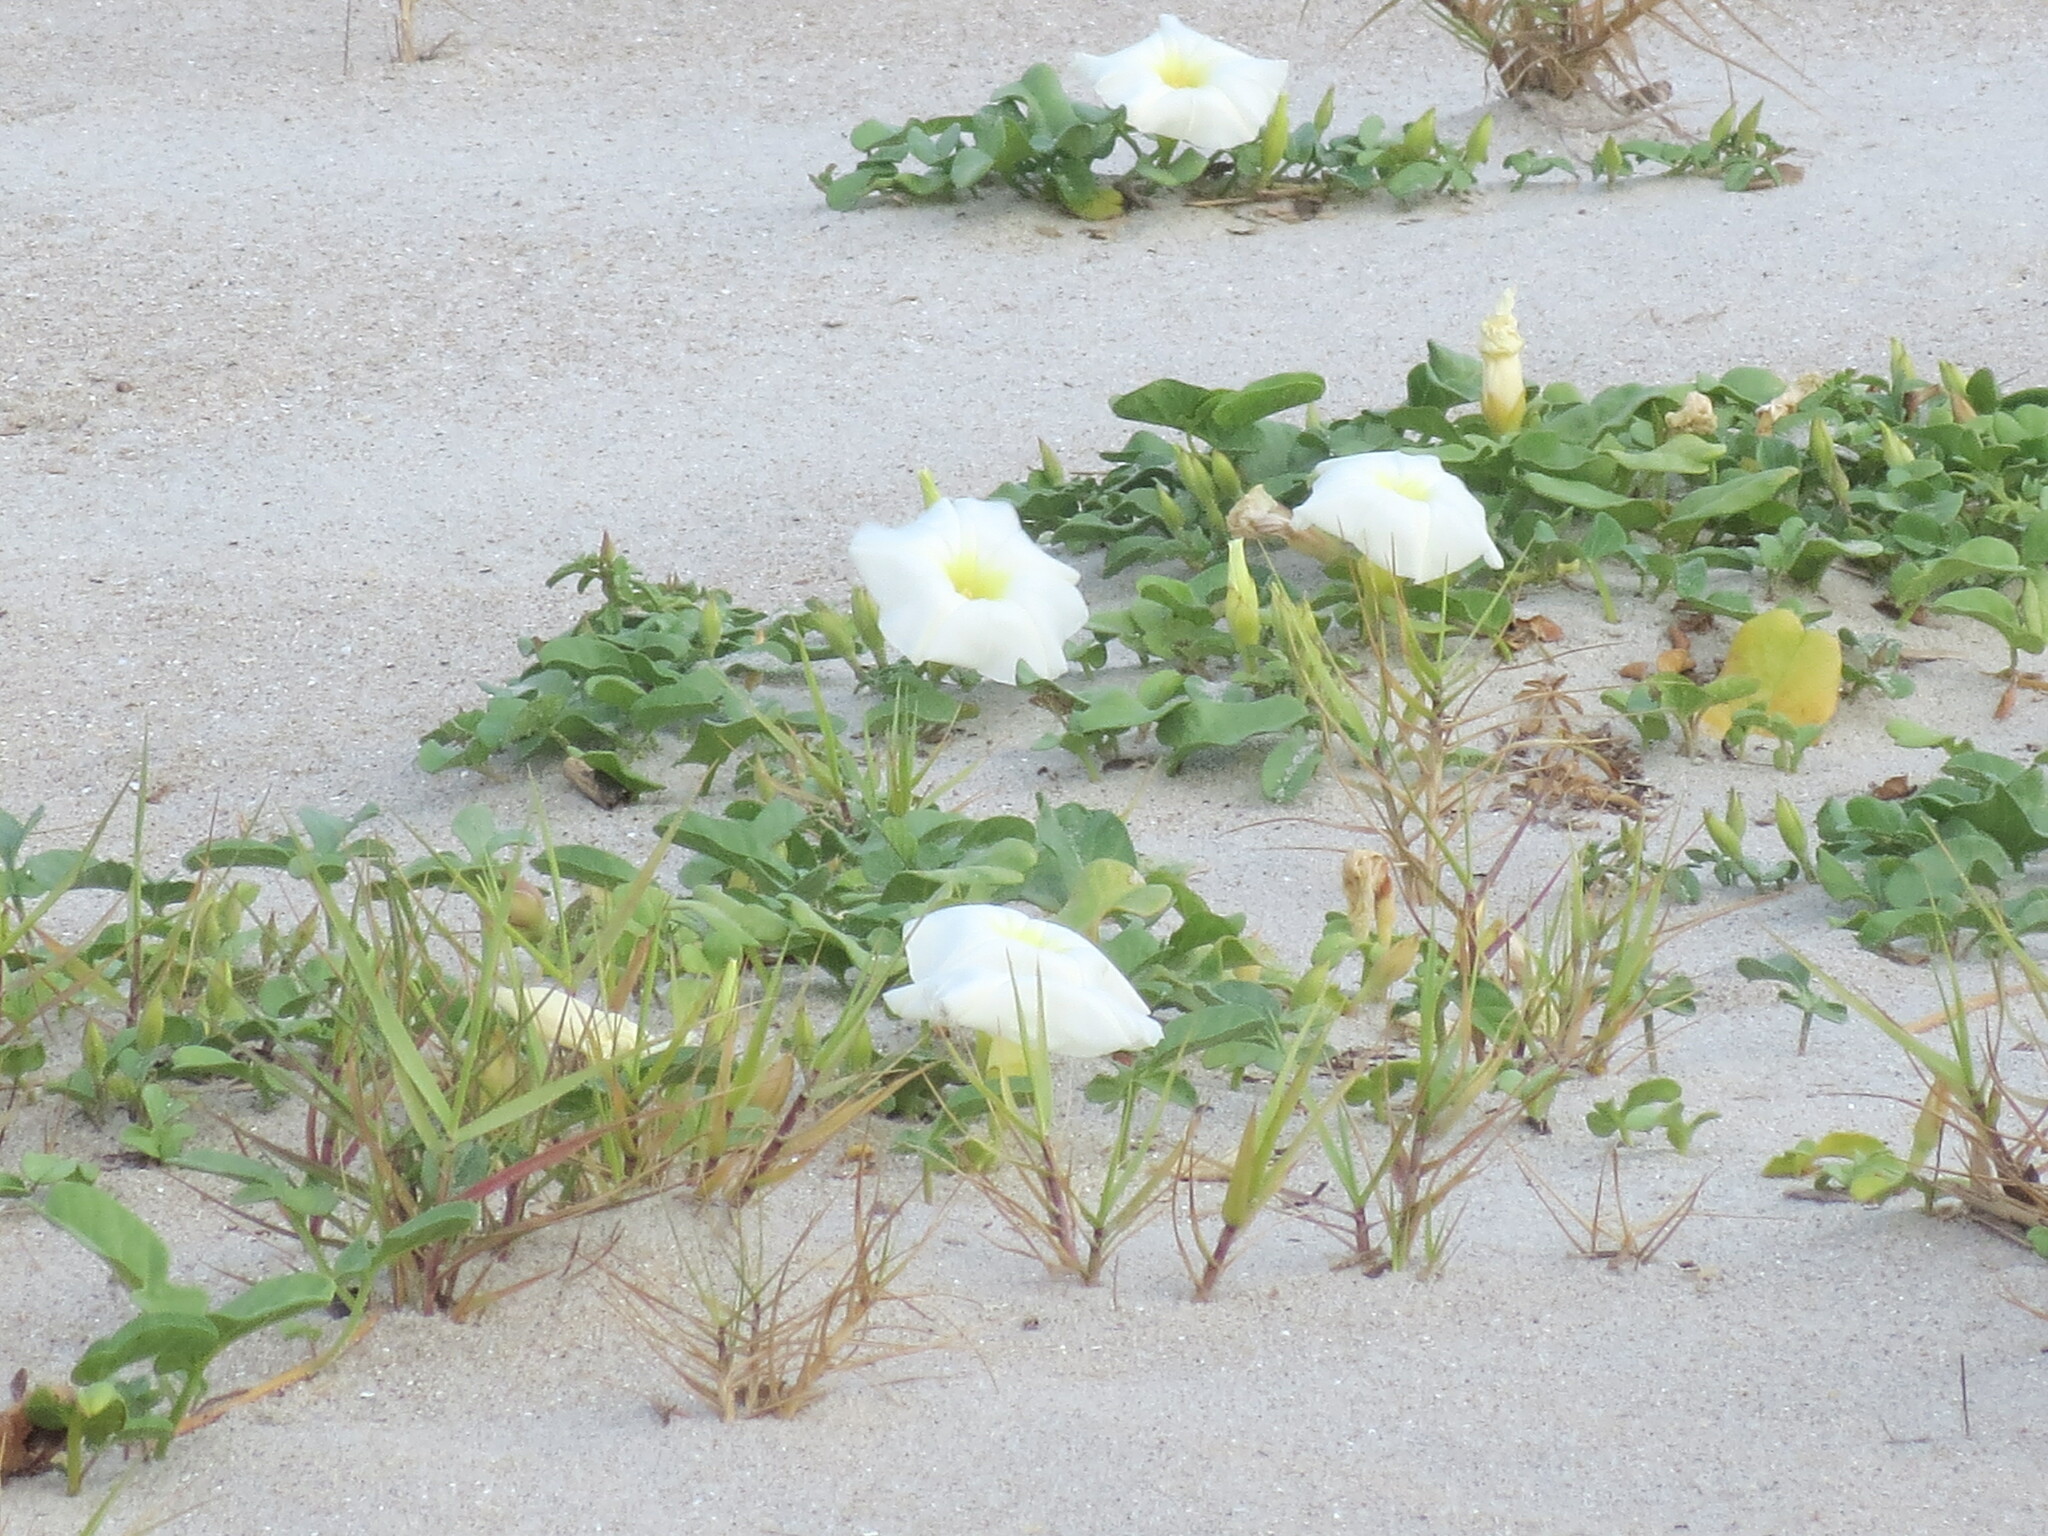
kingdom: Plantae
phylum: Tracheophyta
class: Magnoliopsida
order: Solanales
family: Convolvulaceae
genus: Ipomoea
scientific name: Ipomoea imperati
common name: Fiddle-leaf morning-glory
